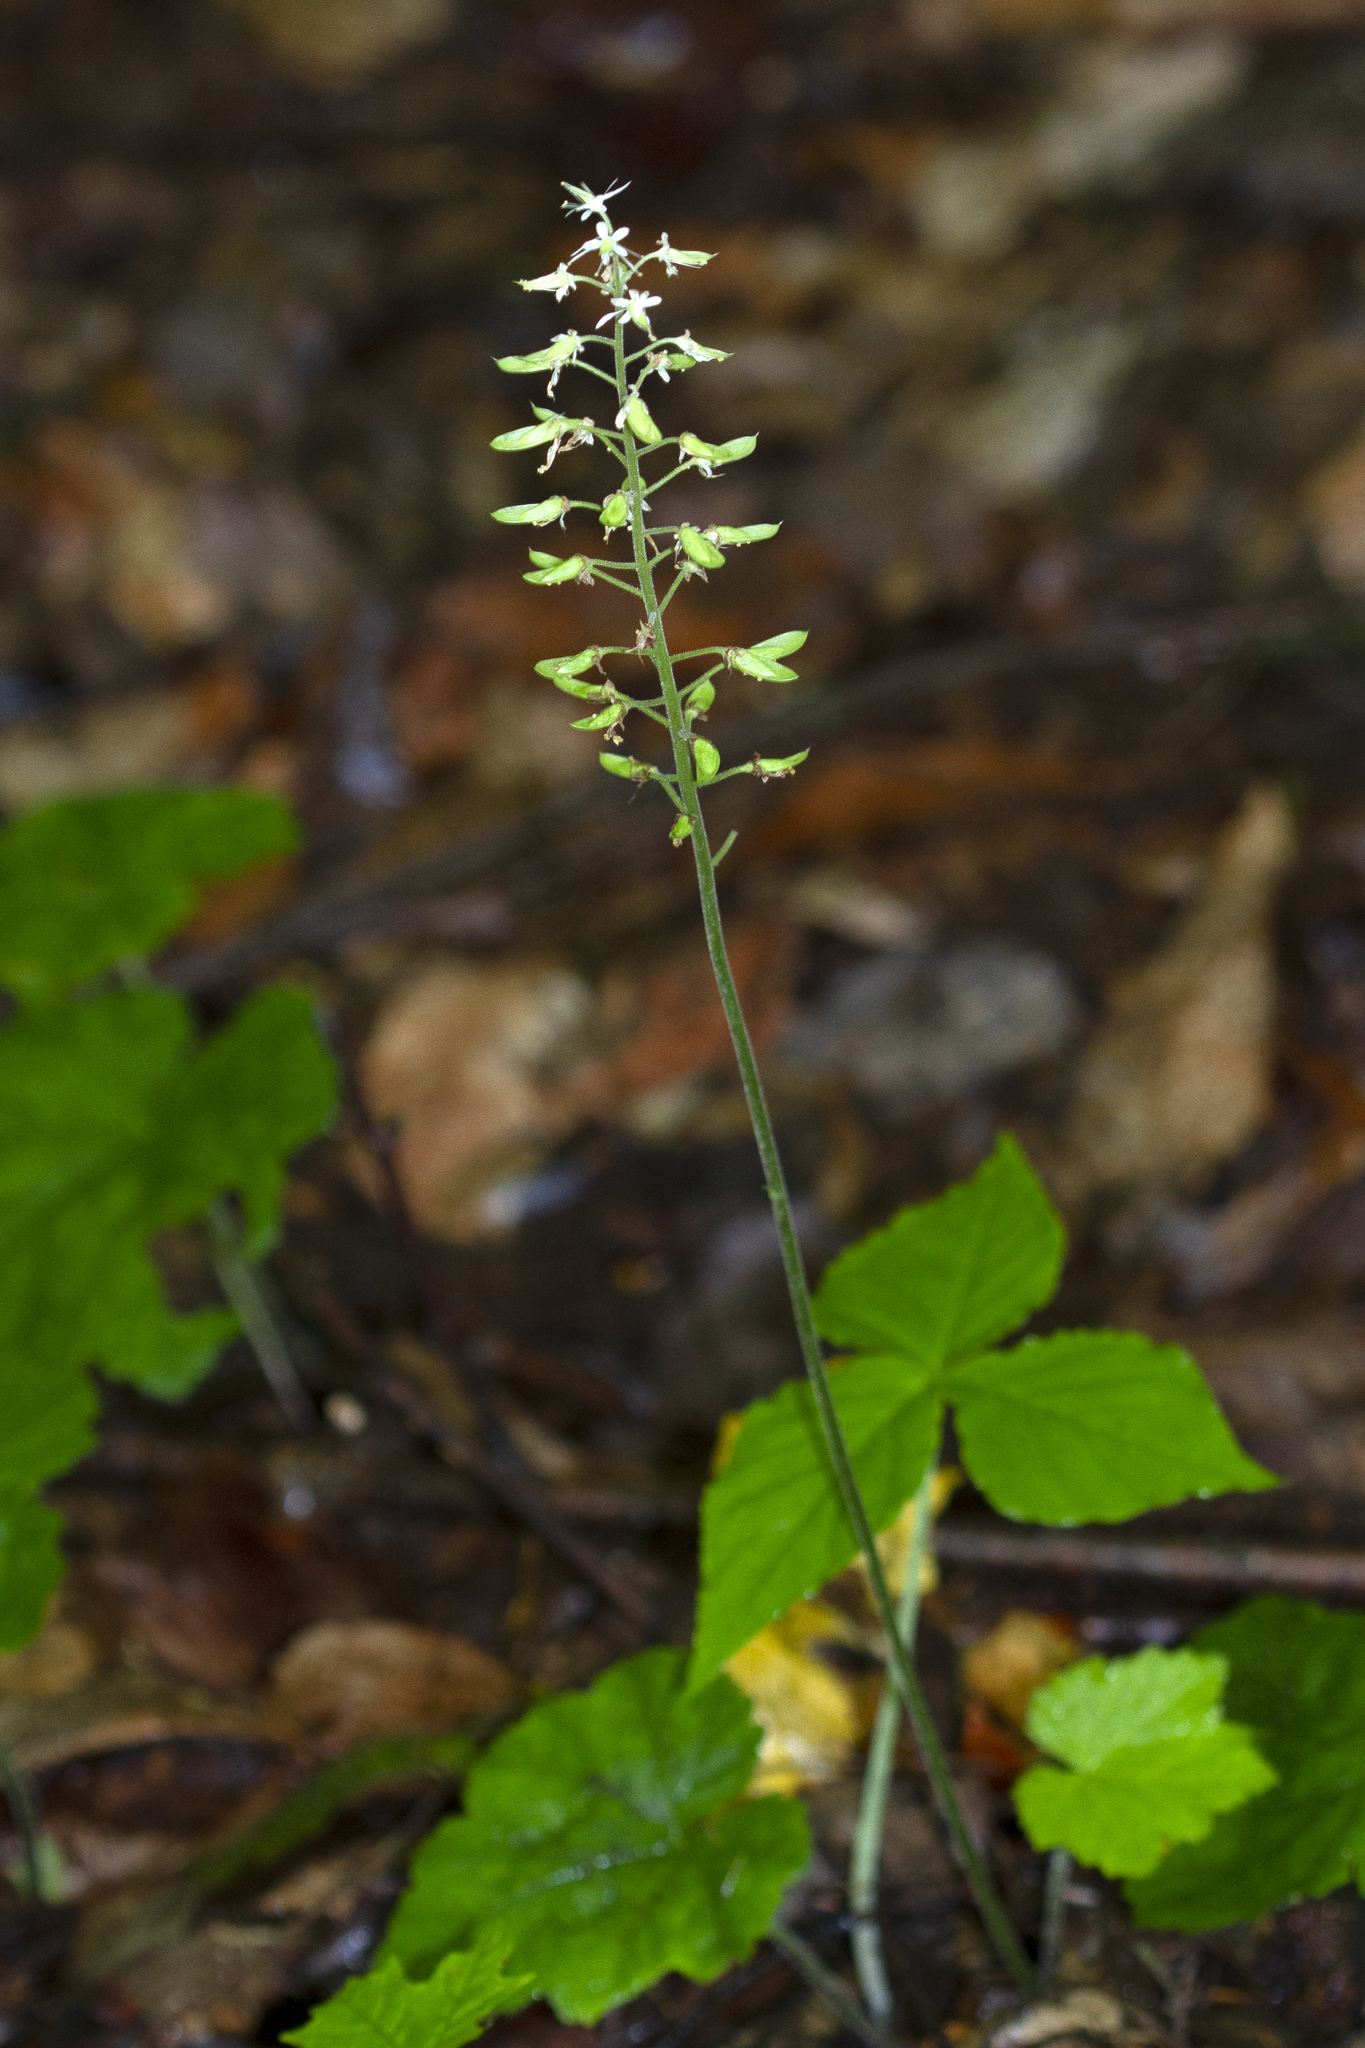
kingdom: Plantae
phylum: Tracheophyta
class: Magnoliopsida
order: Saxifragales
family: Saxifragaceae
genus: Tiarella
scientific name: Tiarella stolonifera
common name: Stoloniferous foamflower
